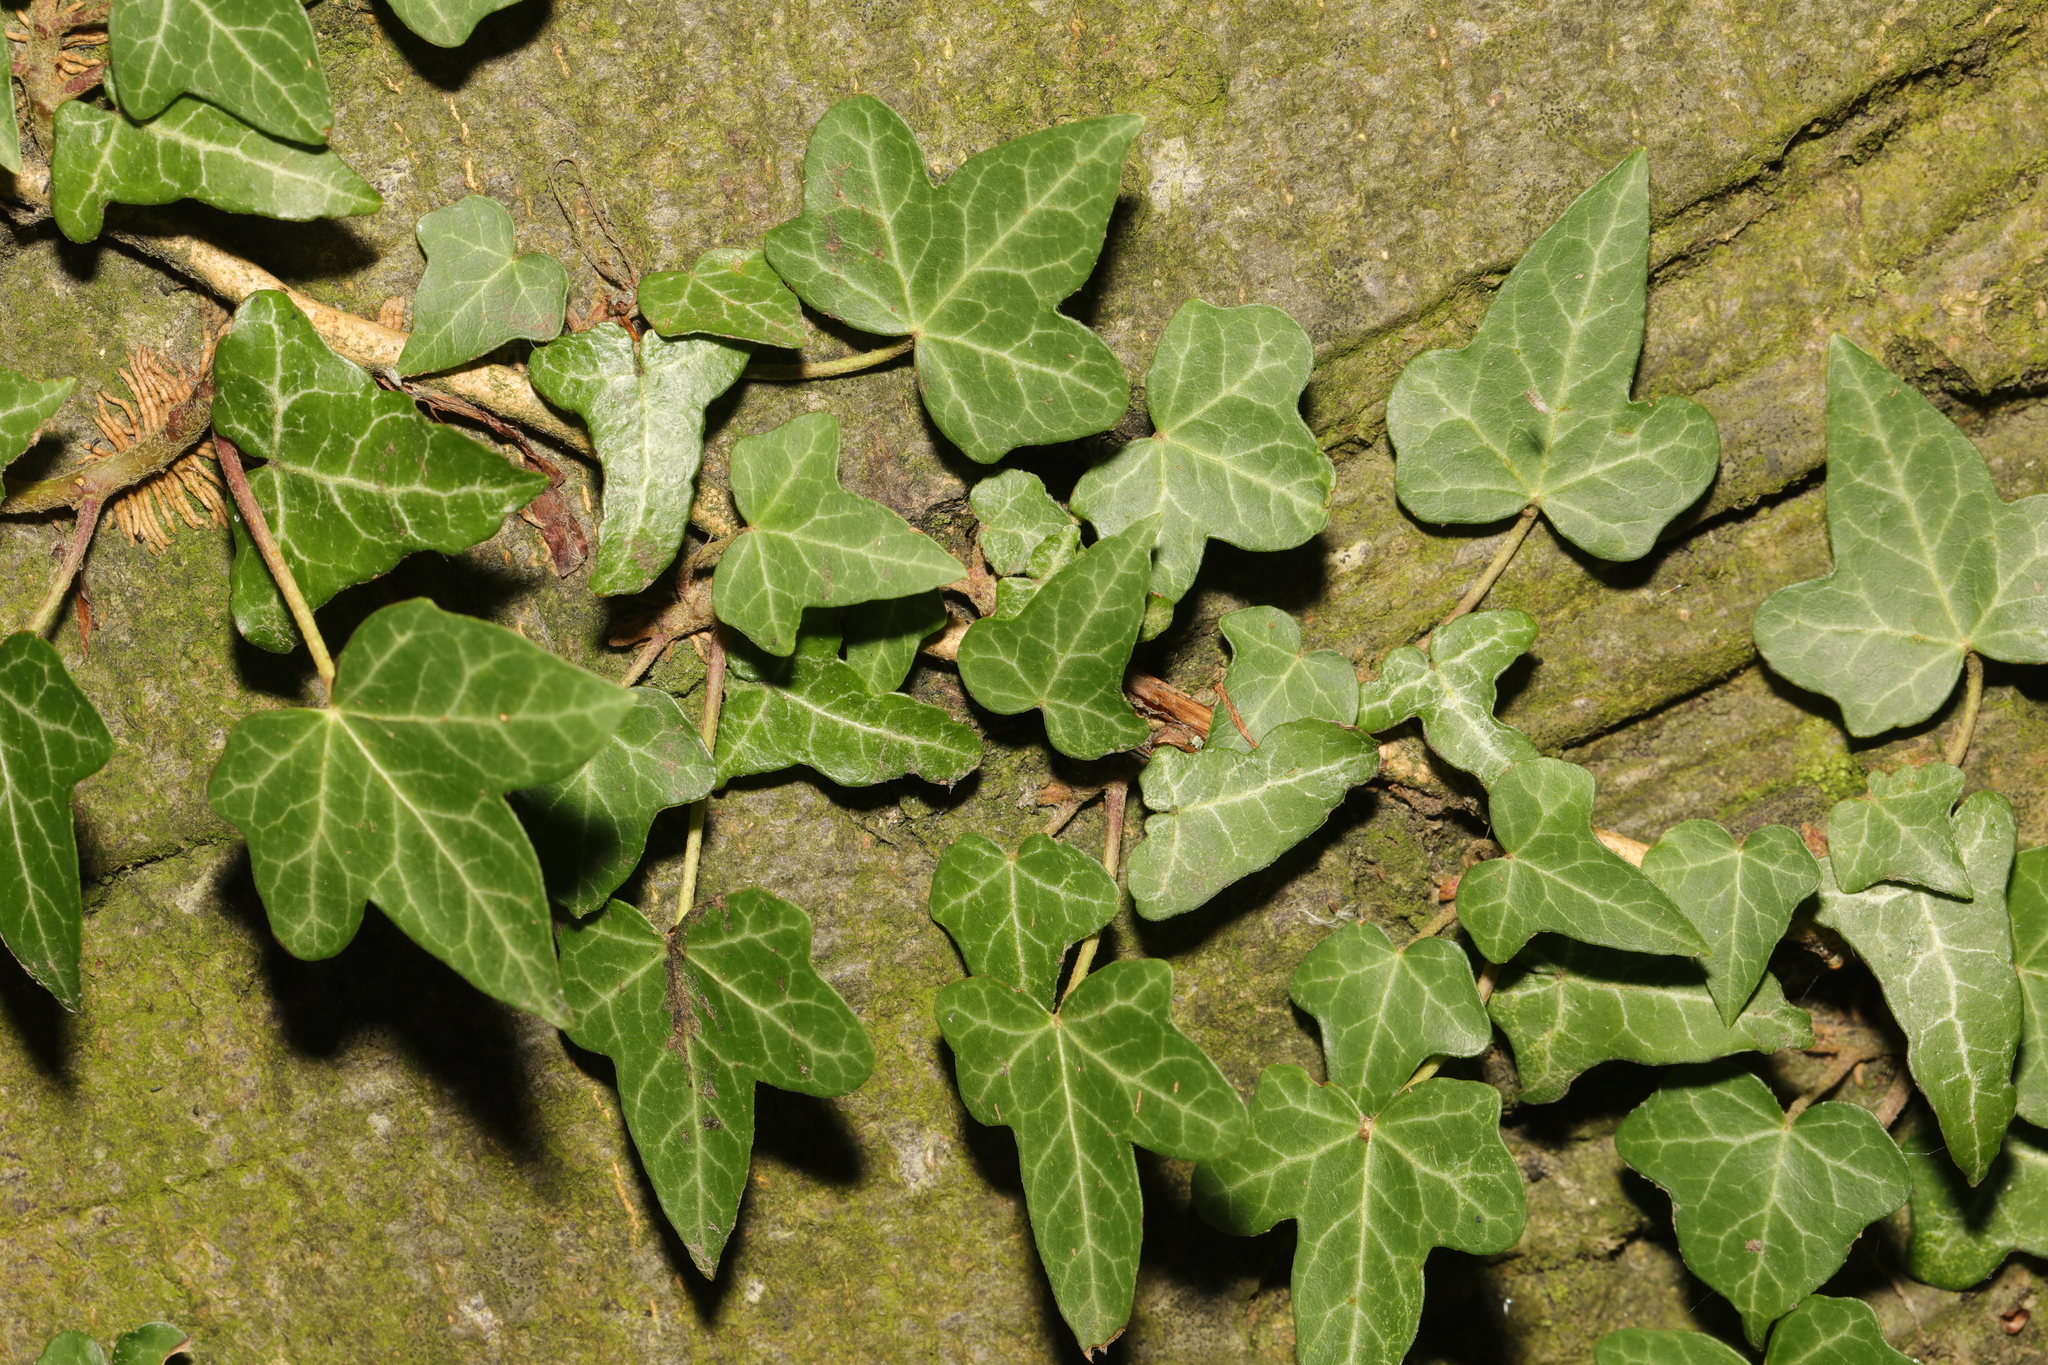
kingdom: Plantae
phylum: Tracheophyta
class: Magnoliopsida
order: Apiales
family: Araliaceae
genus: Hedera
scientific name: Hedera helix
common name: Ivy
